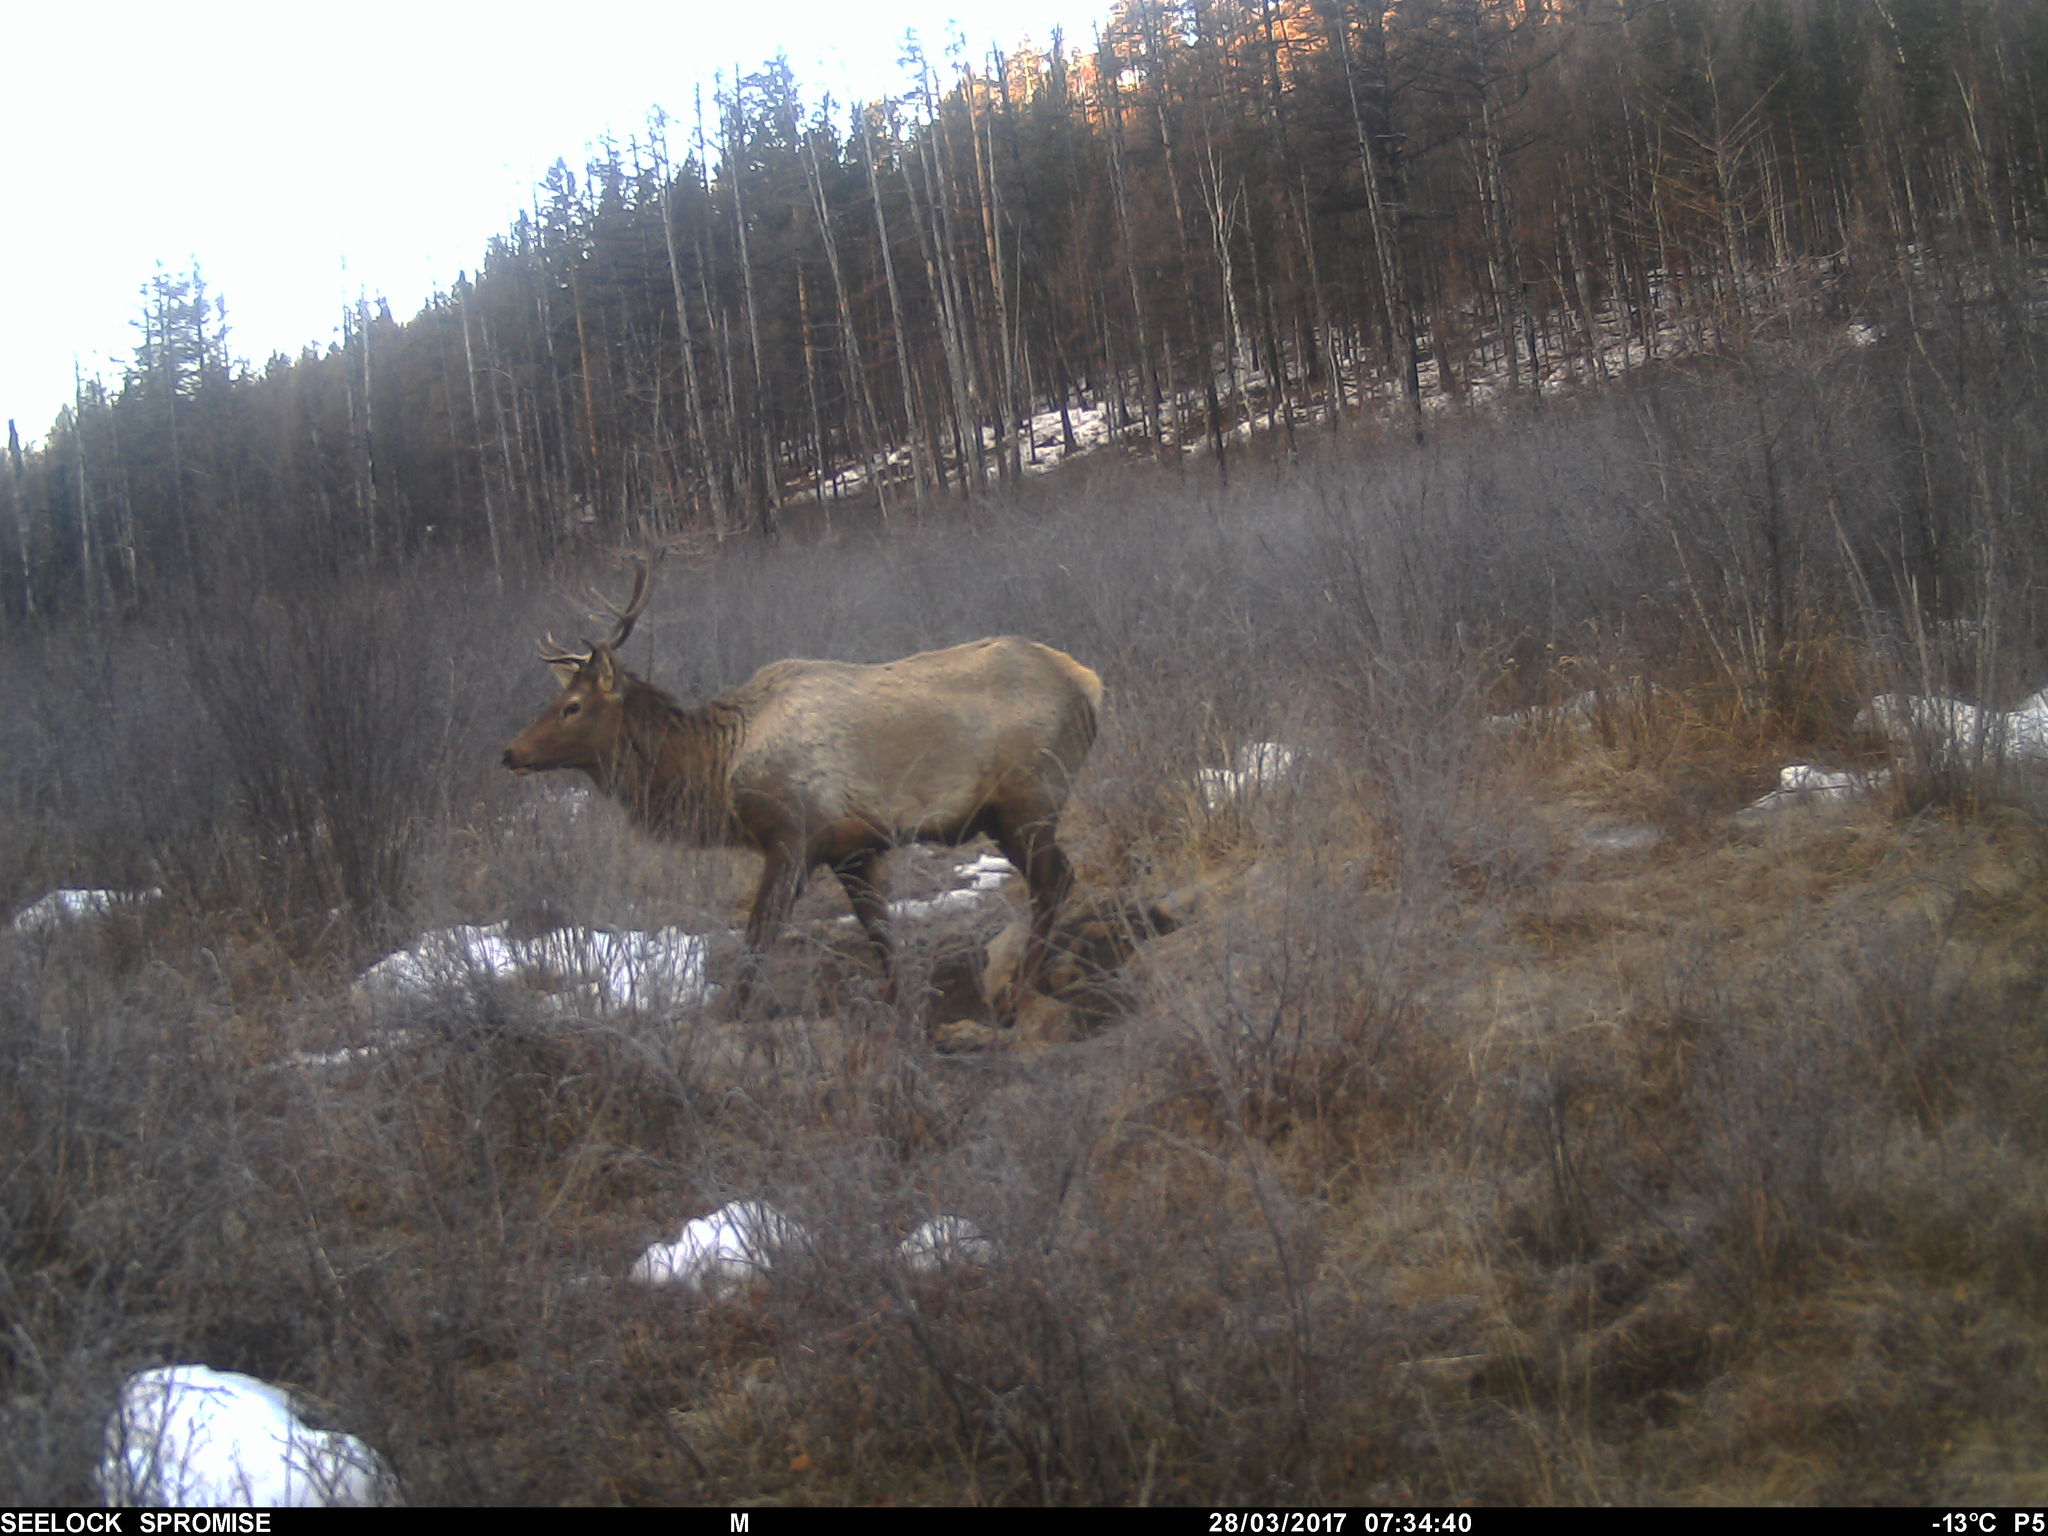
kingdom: Animalia
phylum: Chordata
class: Mammalia
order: Artiodactyla
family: Cervidae
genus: Cervus
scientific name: Cervus elaphus
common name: Red deer
